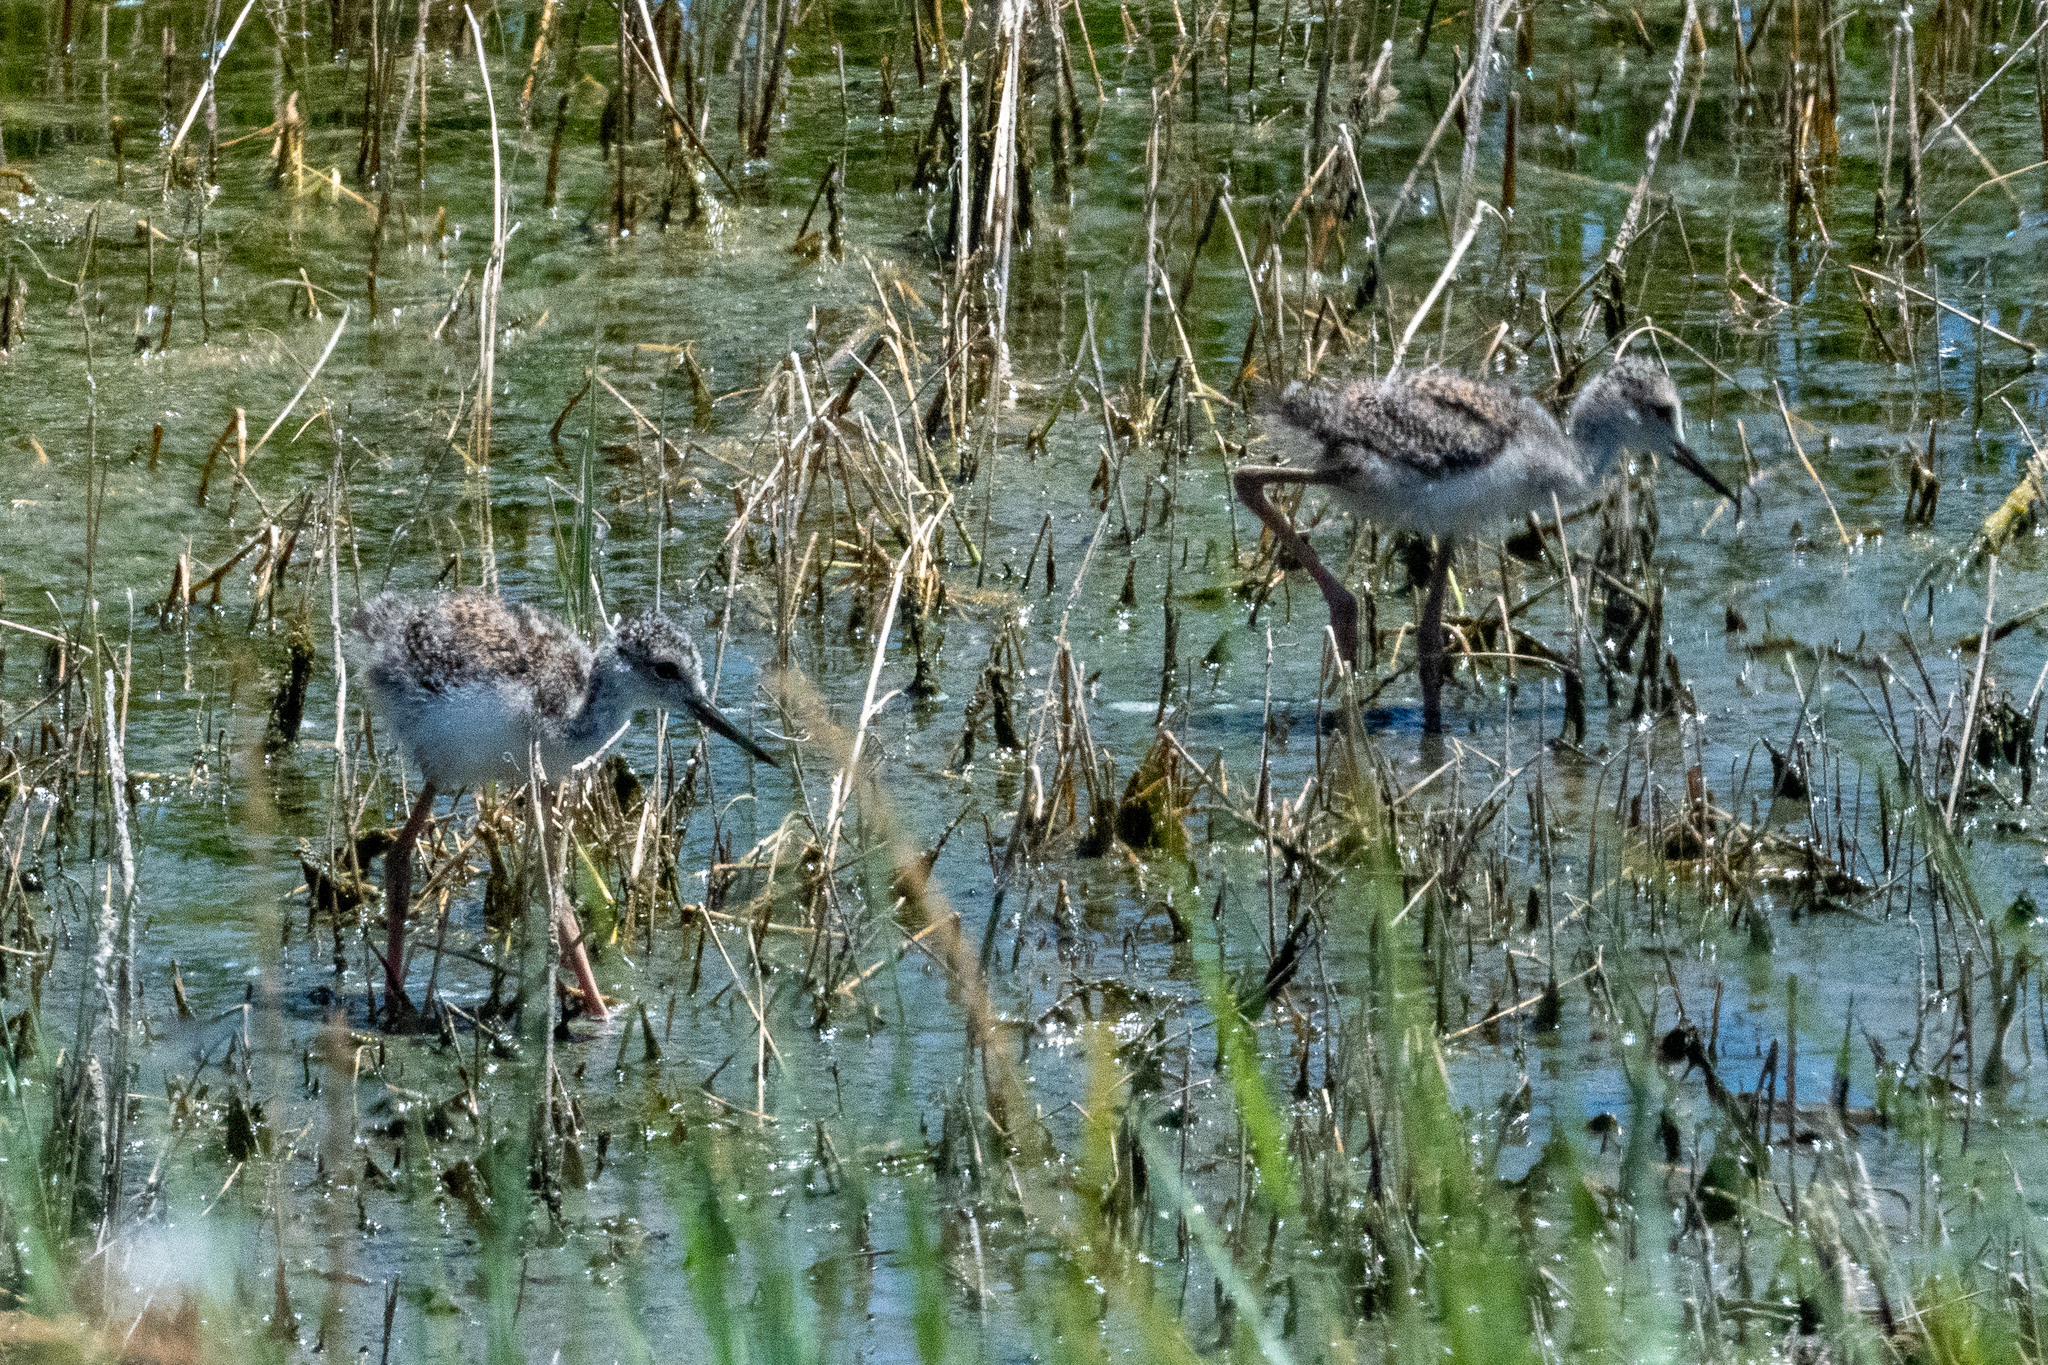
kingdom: Animalia
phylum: Chordata
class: Aves
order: Charadriiformes
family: Recurvirostridae
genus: Himantopus
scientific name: Himantopus mexicanus
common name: Black-necked stilt
